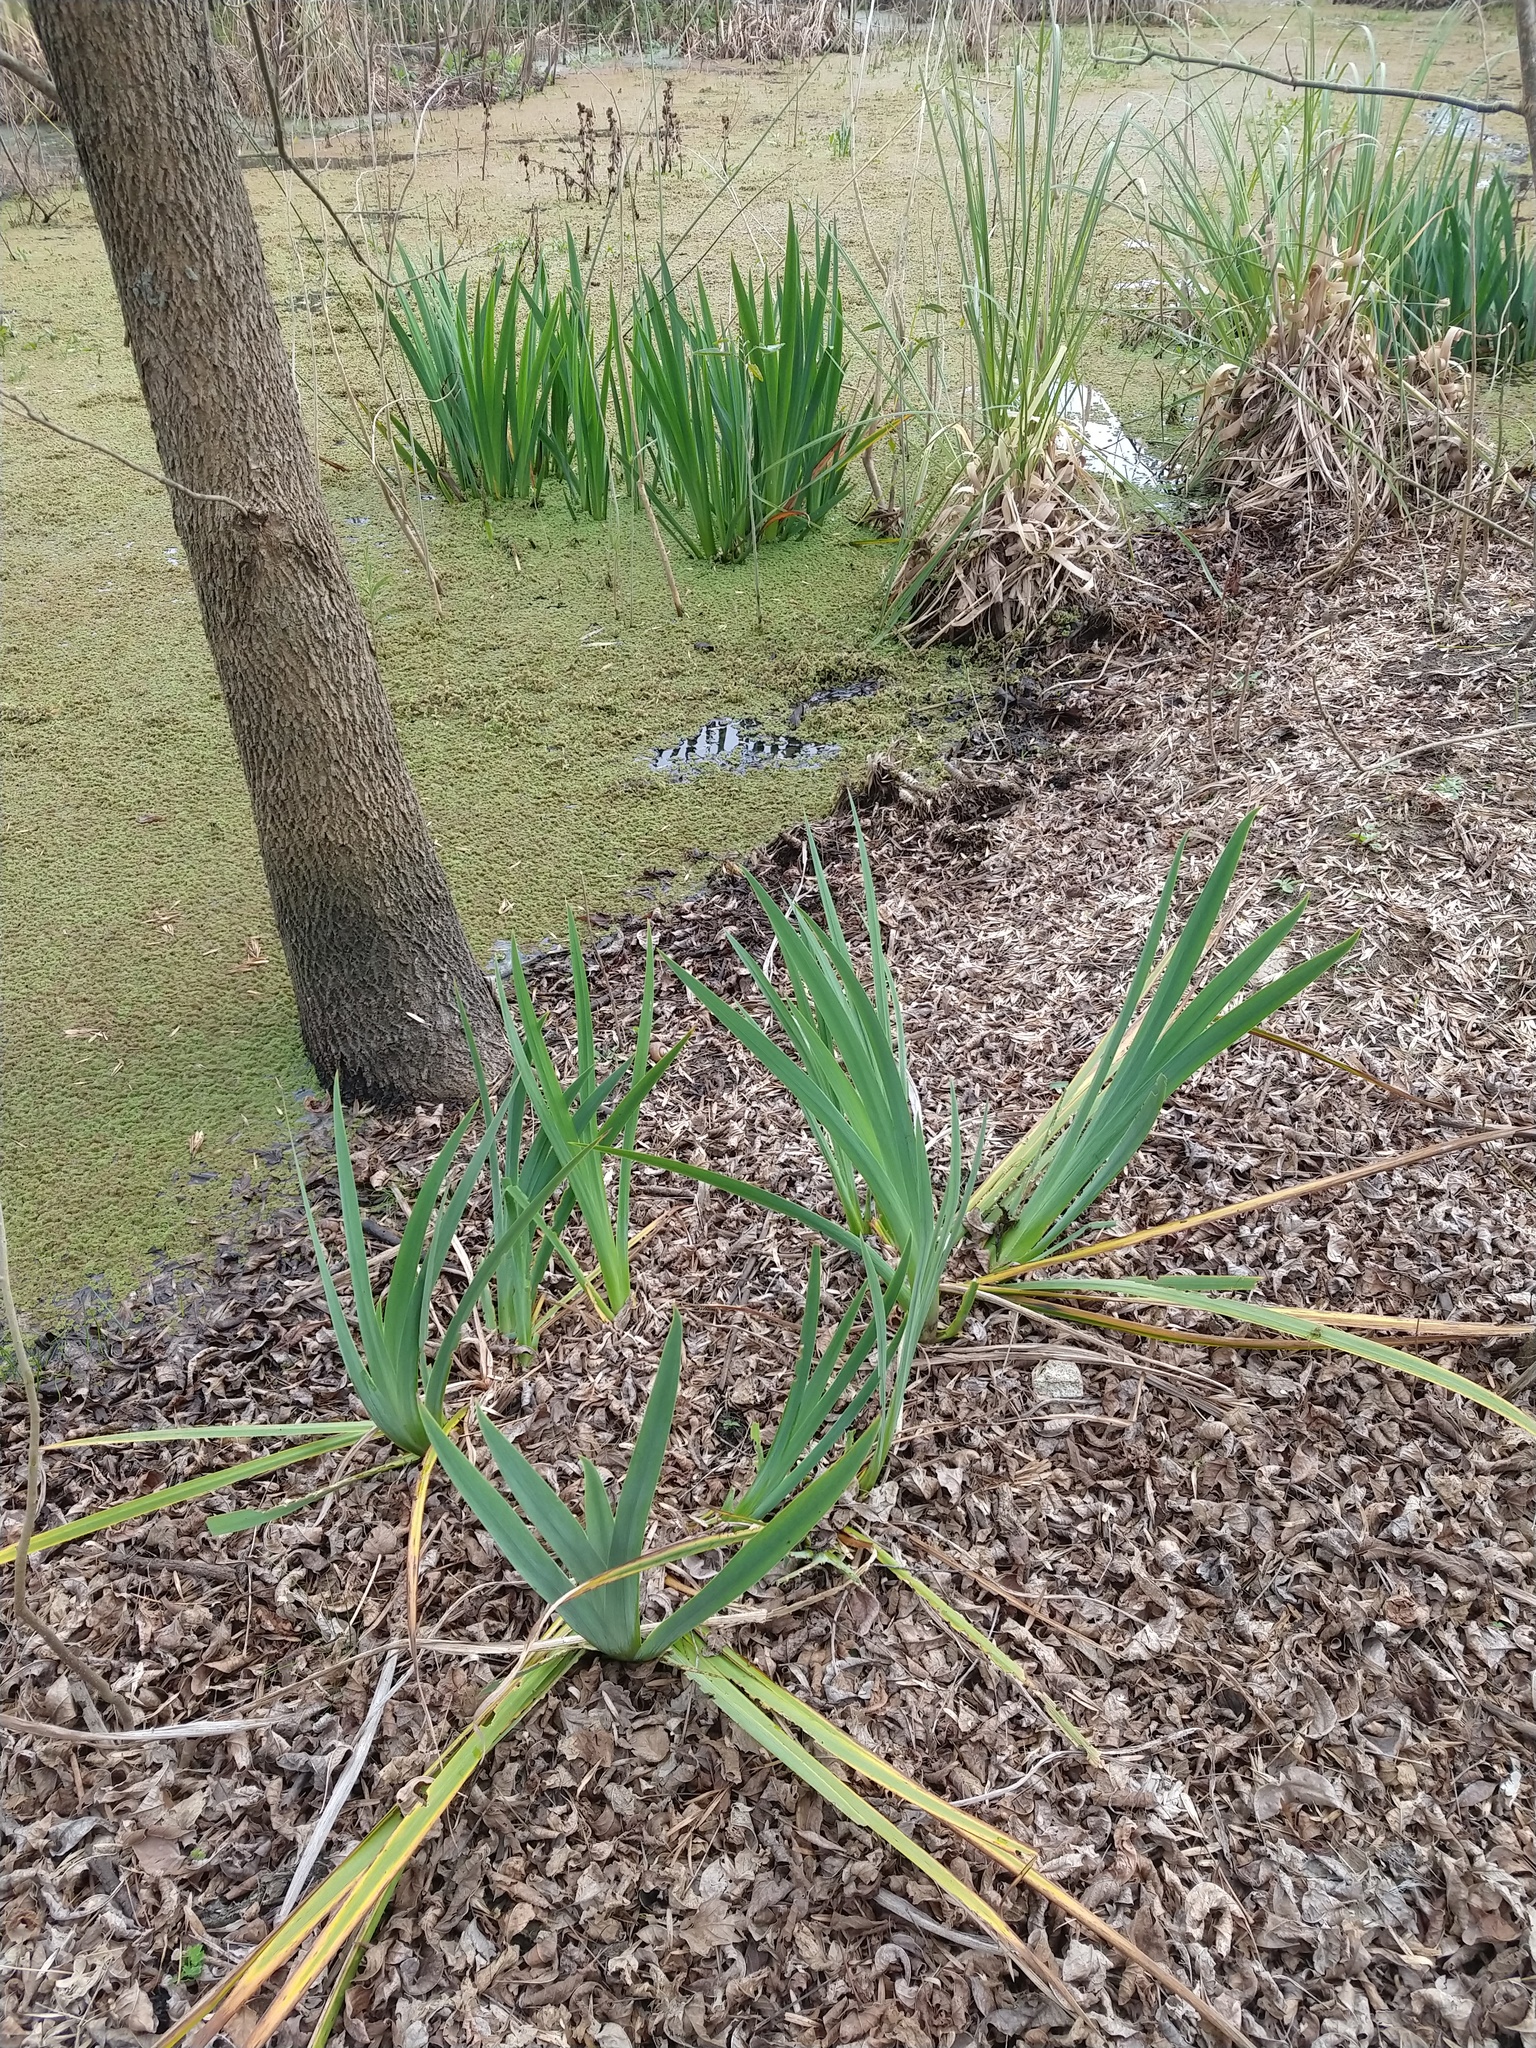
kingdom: Plantae
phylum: Tracheophyta
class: Liliopsida
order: Asparagales
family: Iridaceae
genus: Iris
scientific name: Iris pseudacorus
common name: Yellow flag
